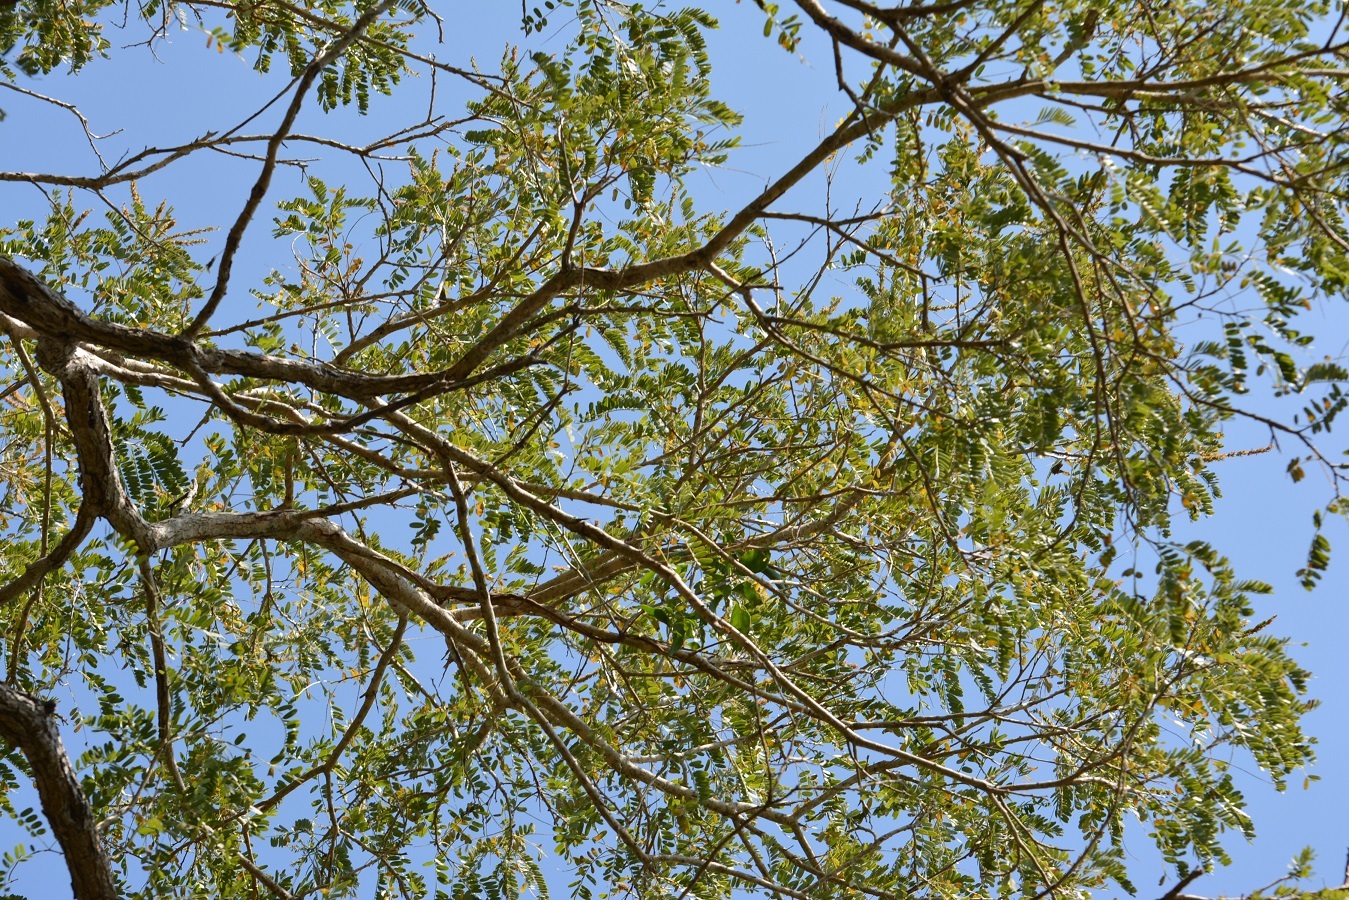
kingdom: Plantae
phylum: Tracheophyta
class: Magnoliopsida
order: Fabales
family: Fabaceae
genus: Diphysa
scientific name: Diphysa americana
